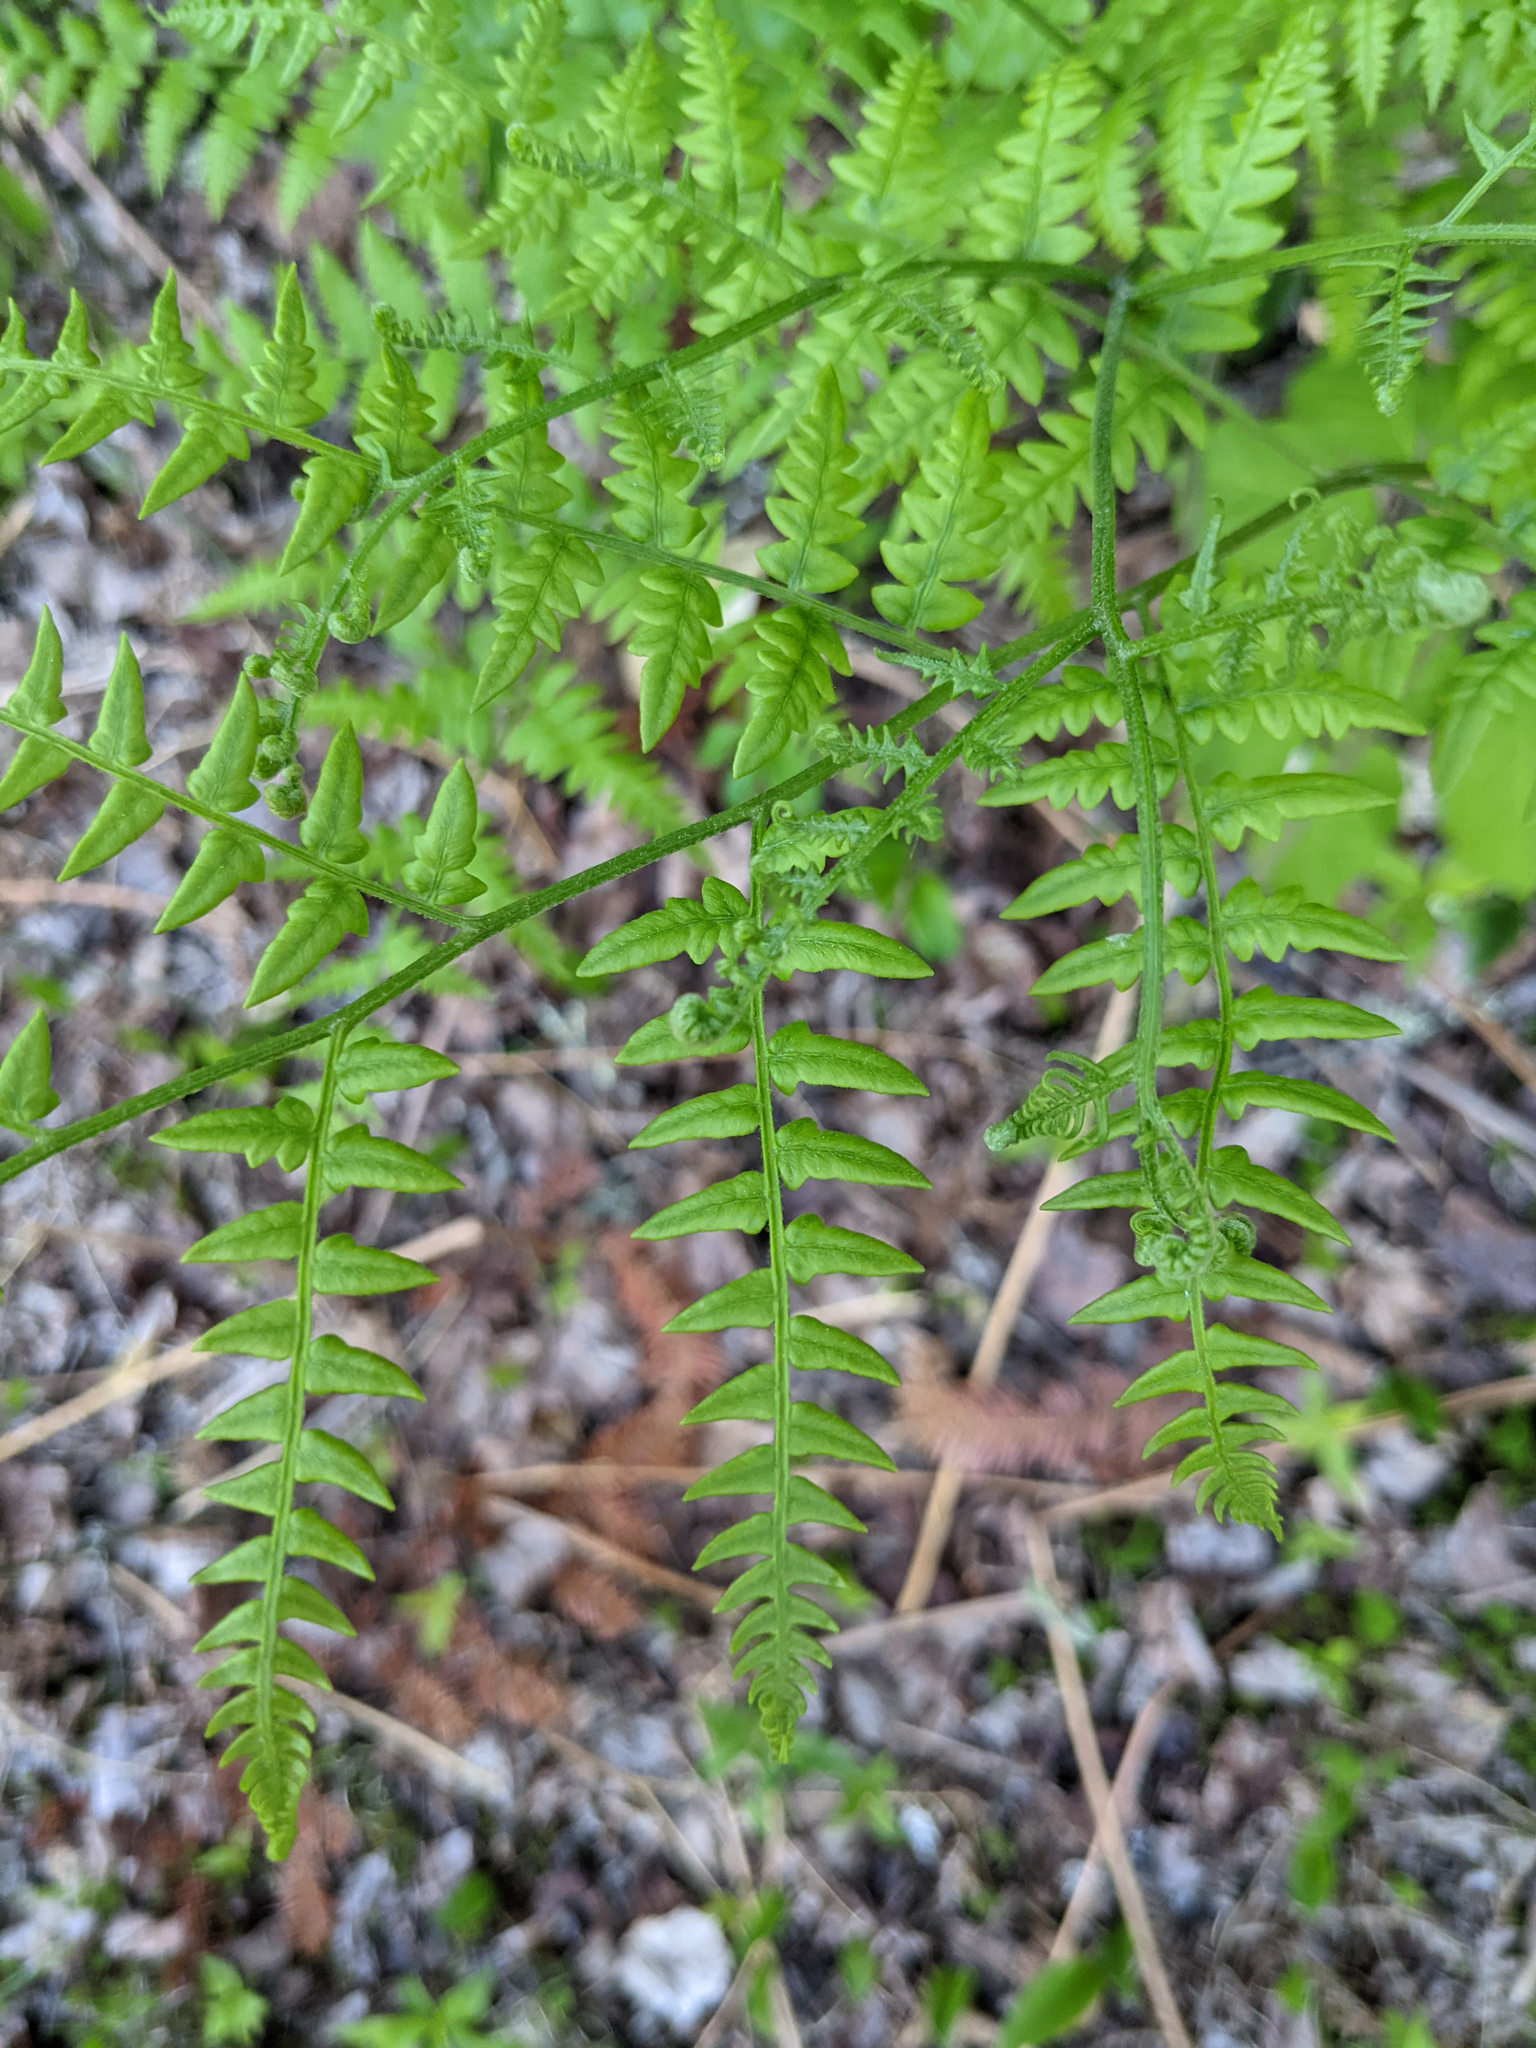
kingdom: Plantae
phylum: Tracheophyta
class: Polypodiopsida
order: Polypodiales
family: Dennstaedtiaceae
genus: Pteridium
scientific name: Pteridium aquilinum
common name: Bracken
